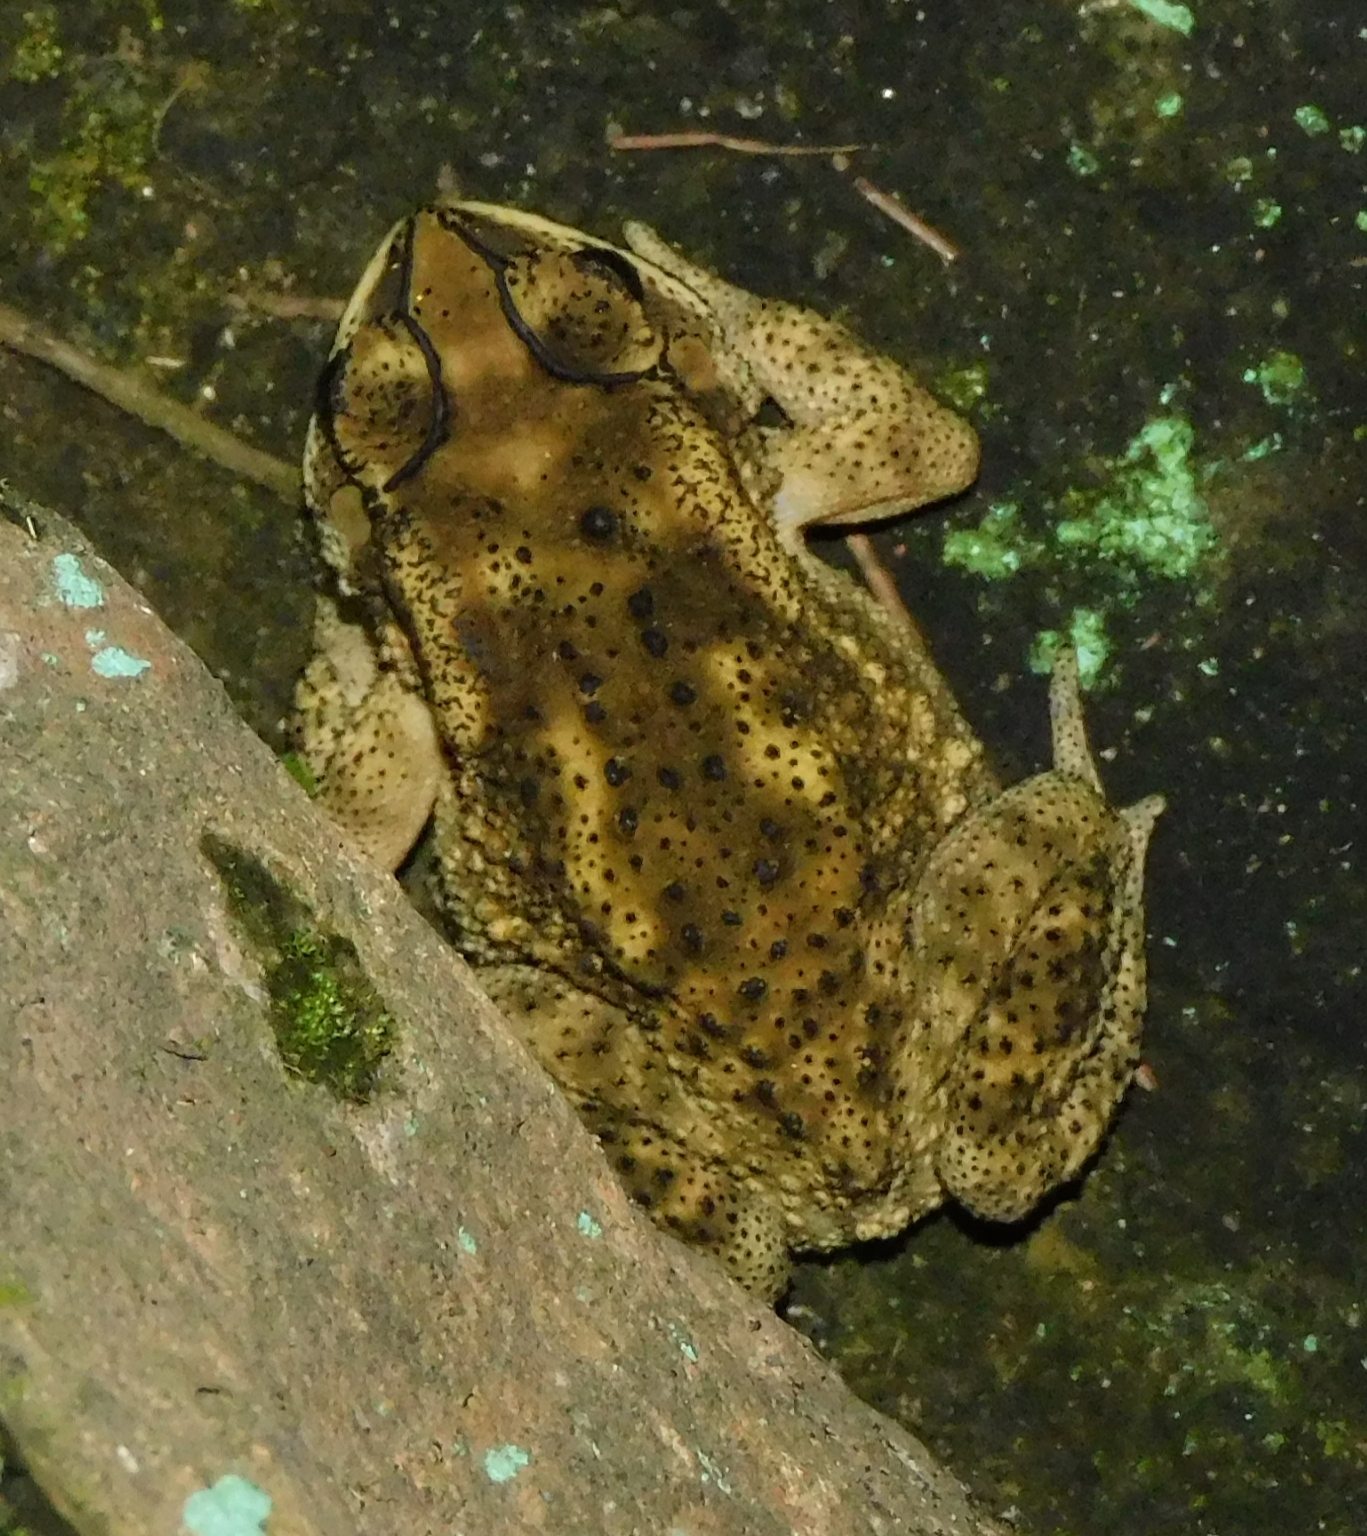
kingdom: Animalia
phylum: Chordata
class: Amphibia
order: Anura
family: Bufonidae
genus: Duttaphrynus
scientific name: Duttaphrynus melanostictus
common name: Common sunda toad
